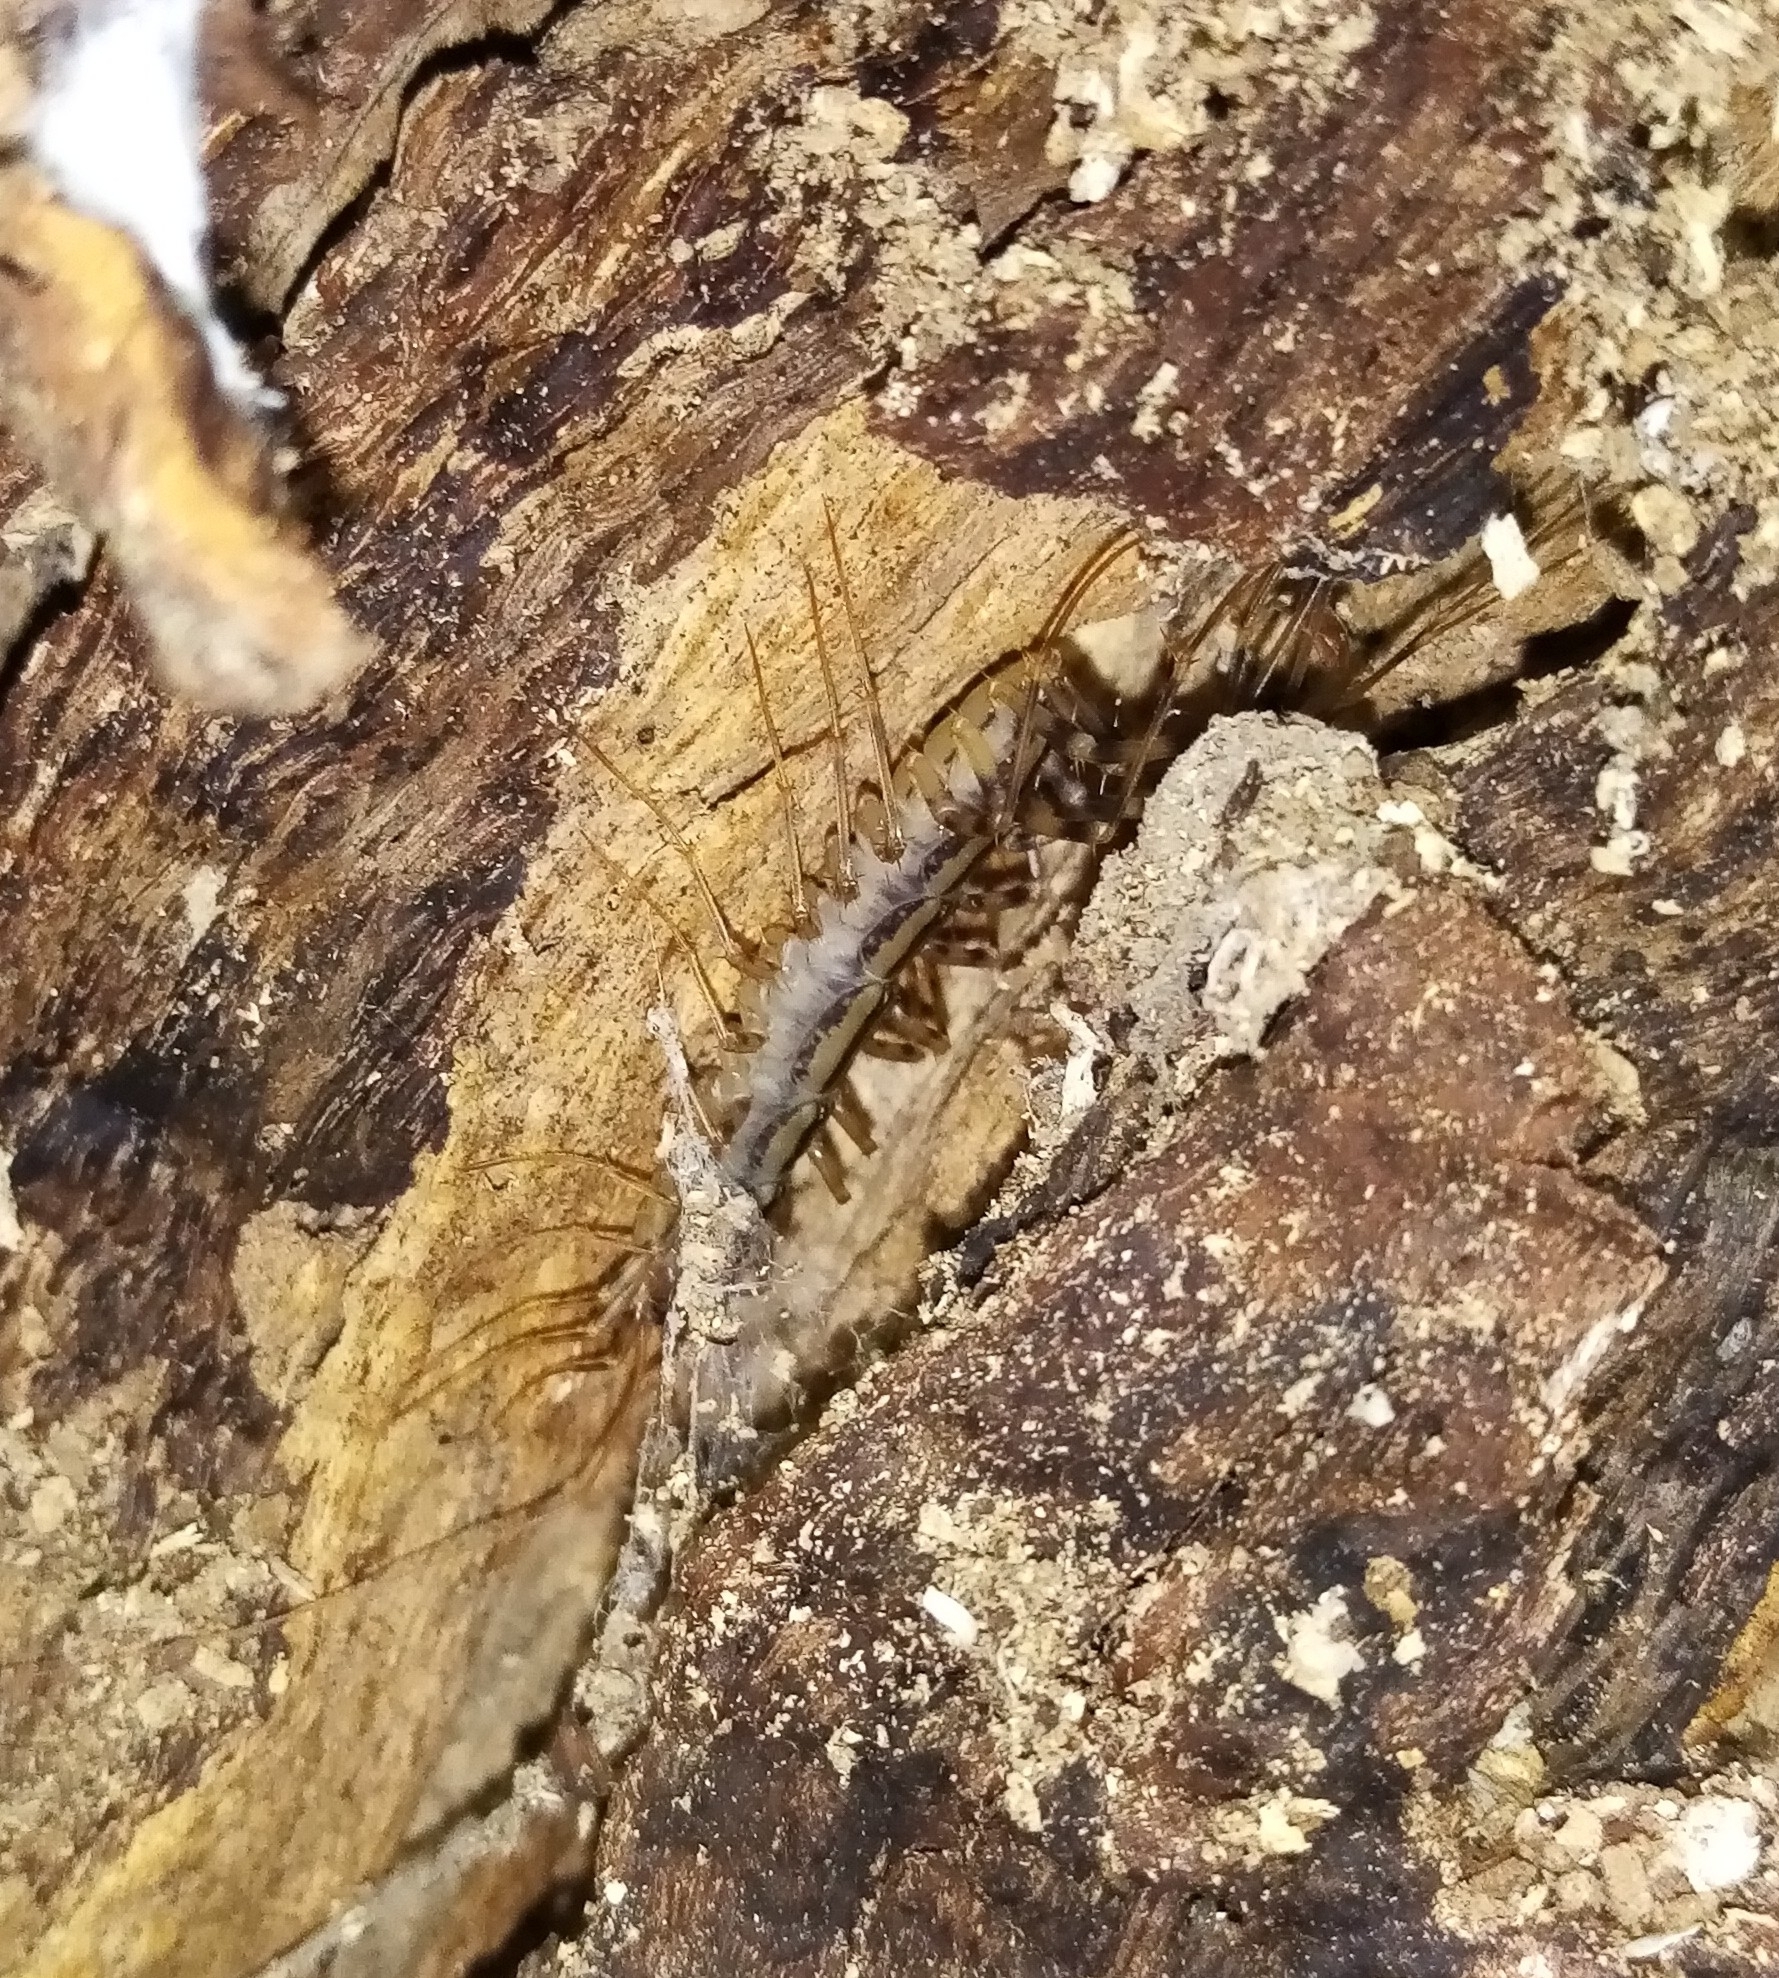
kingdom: Animalia
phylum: Arthropoda
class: Chilopoda
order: Scutigeromorpha
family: Scutigeridae
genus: Scutigera
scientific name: Scutigera coleoptrata
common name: House centipede
